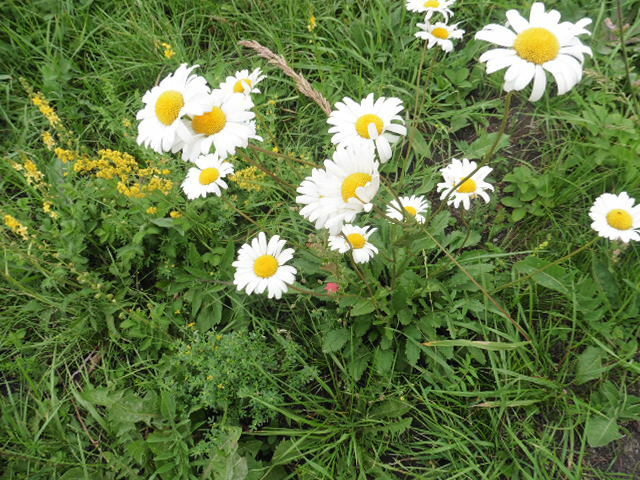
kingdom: Plantae
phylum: Tracheophyta
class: Magnoliopsida
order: Asterales
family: Asteraceae
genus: Leucanthemum
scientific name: Leucanthemum vulgare
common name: Oxeye daisy
